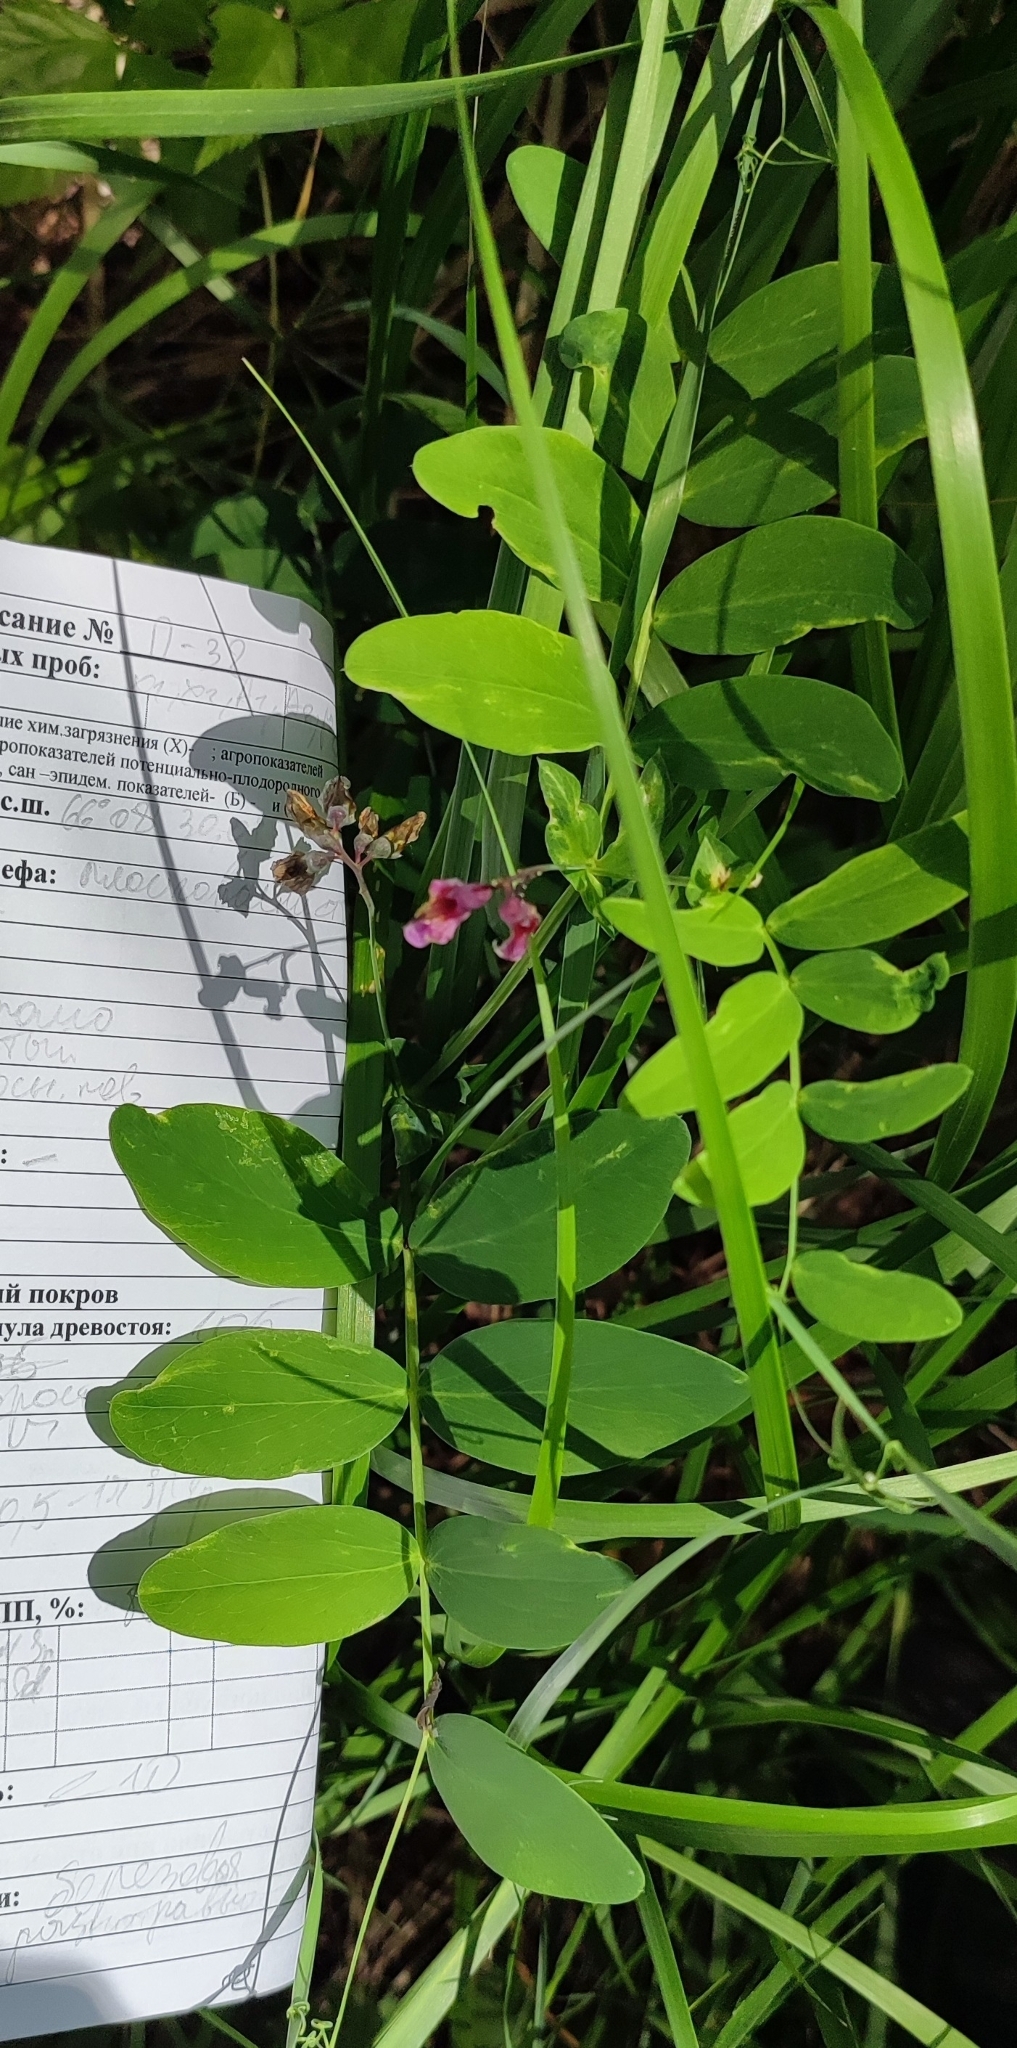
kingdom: Plantae
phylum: Tracheophyta
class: Magnoliopsida
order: Fabales
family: Fabaceae
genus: Lathyrus
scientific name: Lathyrus pisiformis
